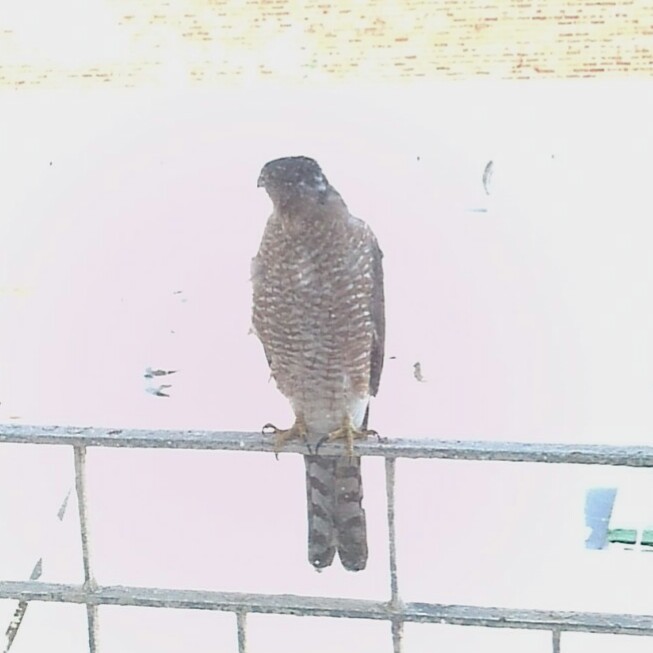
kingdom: Animalia
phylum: Chordata
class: Aves
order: Accipitriformes
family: Accipitridae
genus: Accipiter
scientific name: Accipiter cooperii
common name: Cooper's hawk
